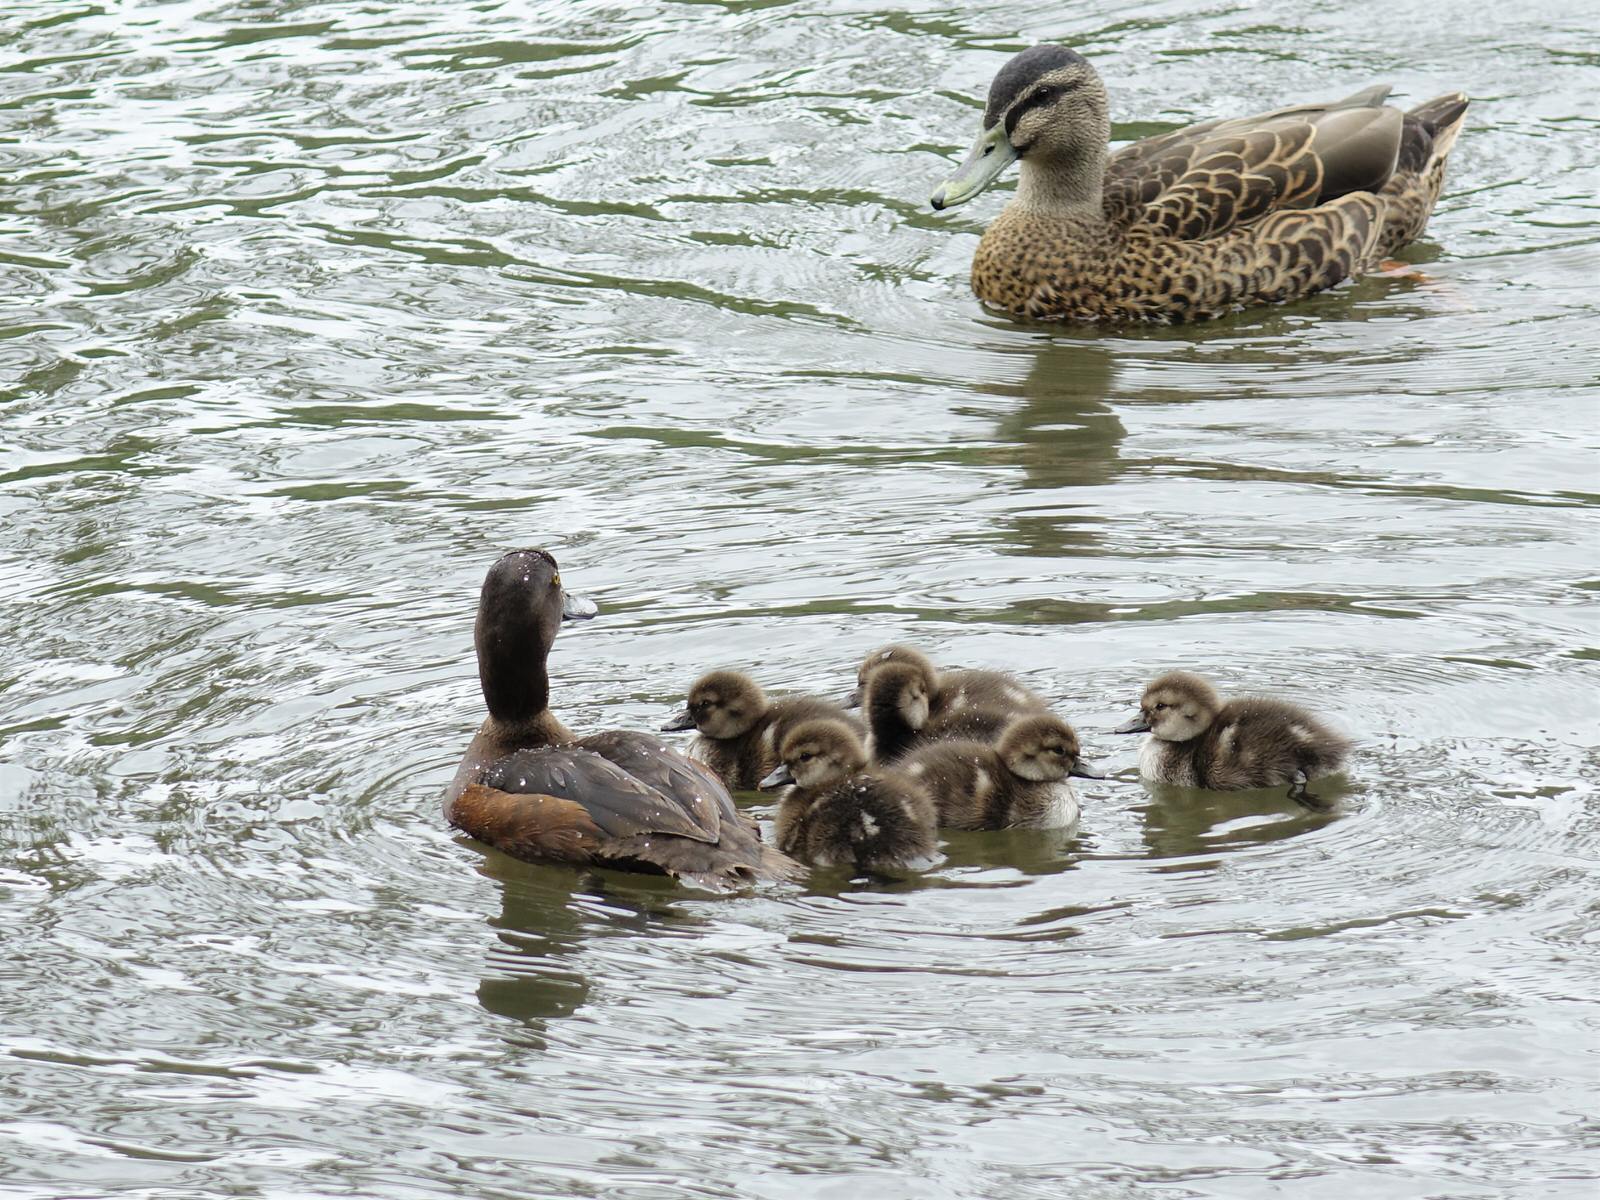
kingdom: Animalia
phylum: Chordata
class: Aves
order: Anseriformes
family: Anatidae
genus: Aythya
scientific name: Aythya novaeseelandiae
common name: New zealand scaup
